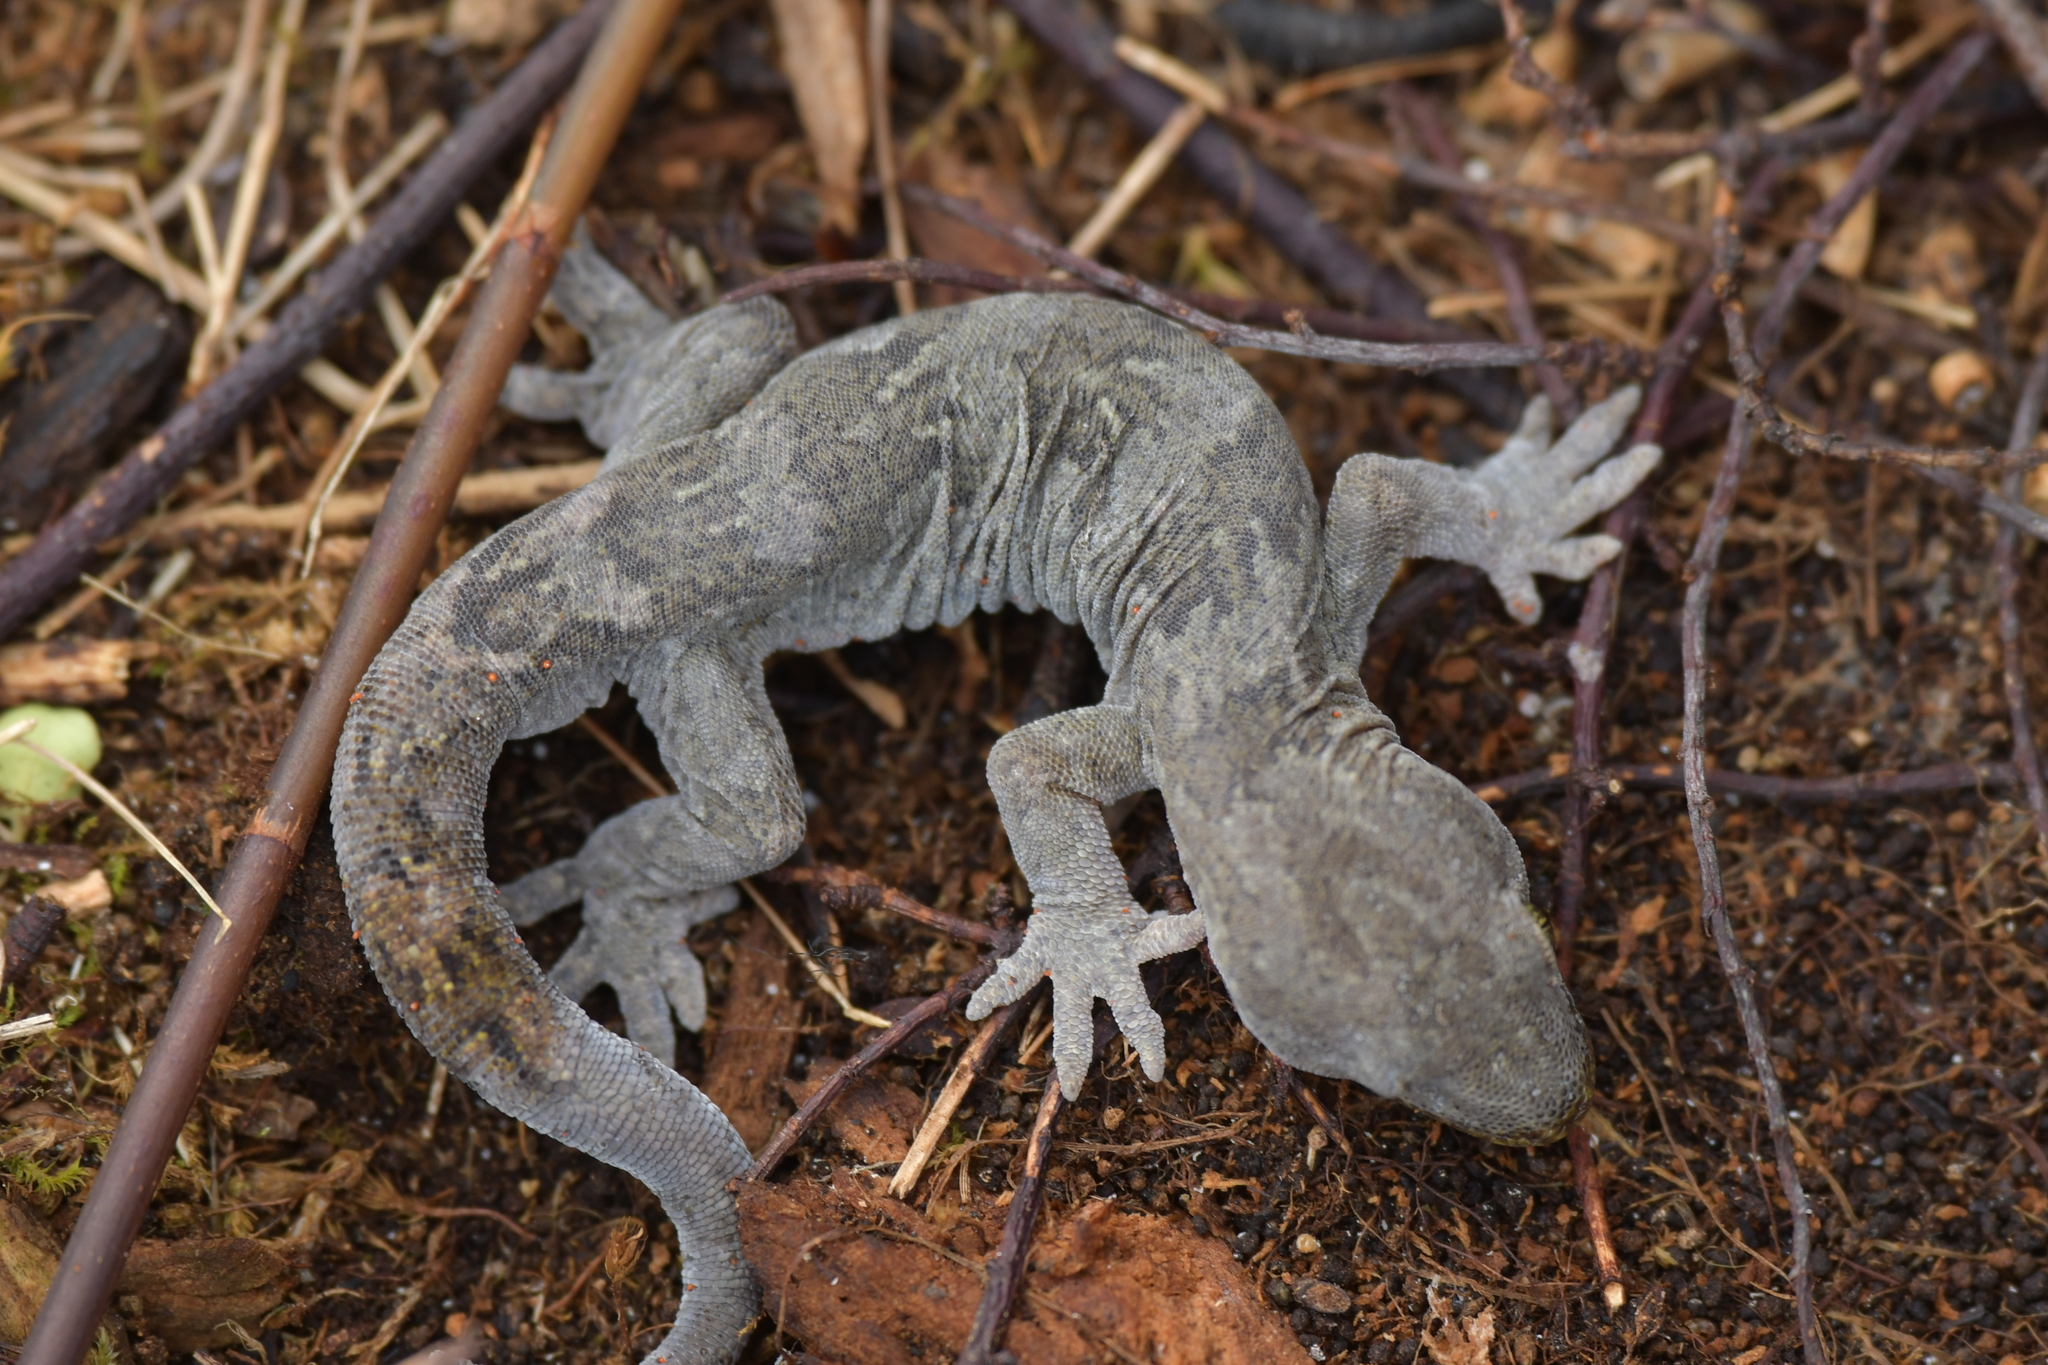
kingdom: Animalia
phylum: Chordata
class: Squamata
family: Diplodactylidae
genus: Woodworthia
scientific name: Woodworthia maculata
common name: Raukawa gecko
